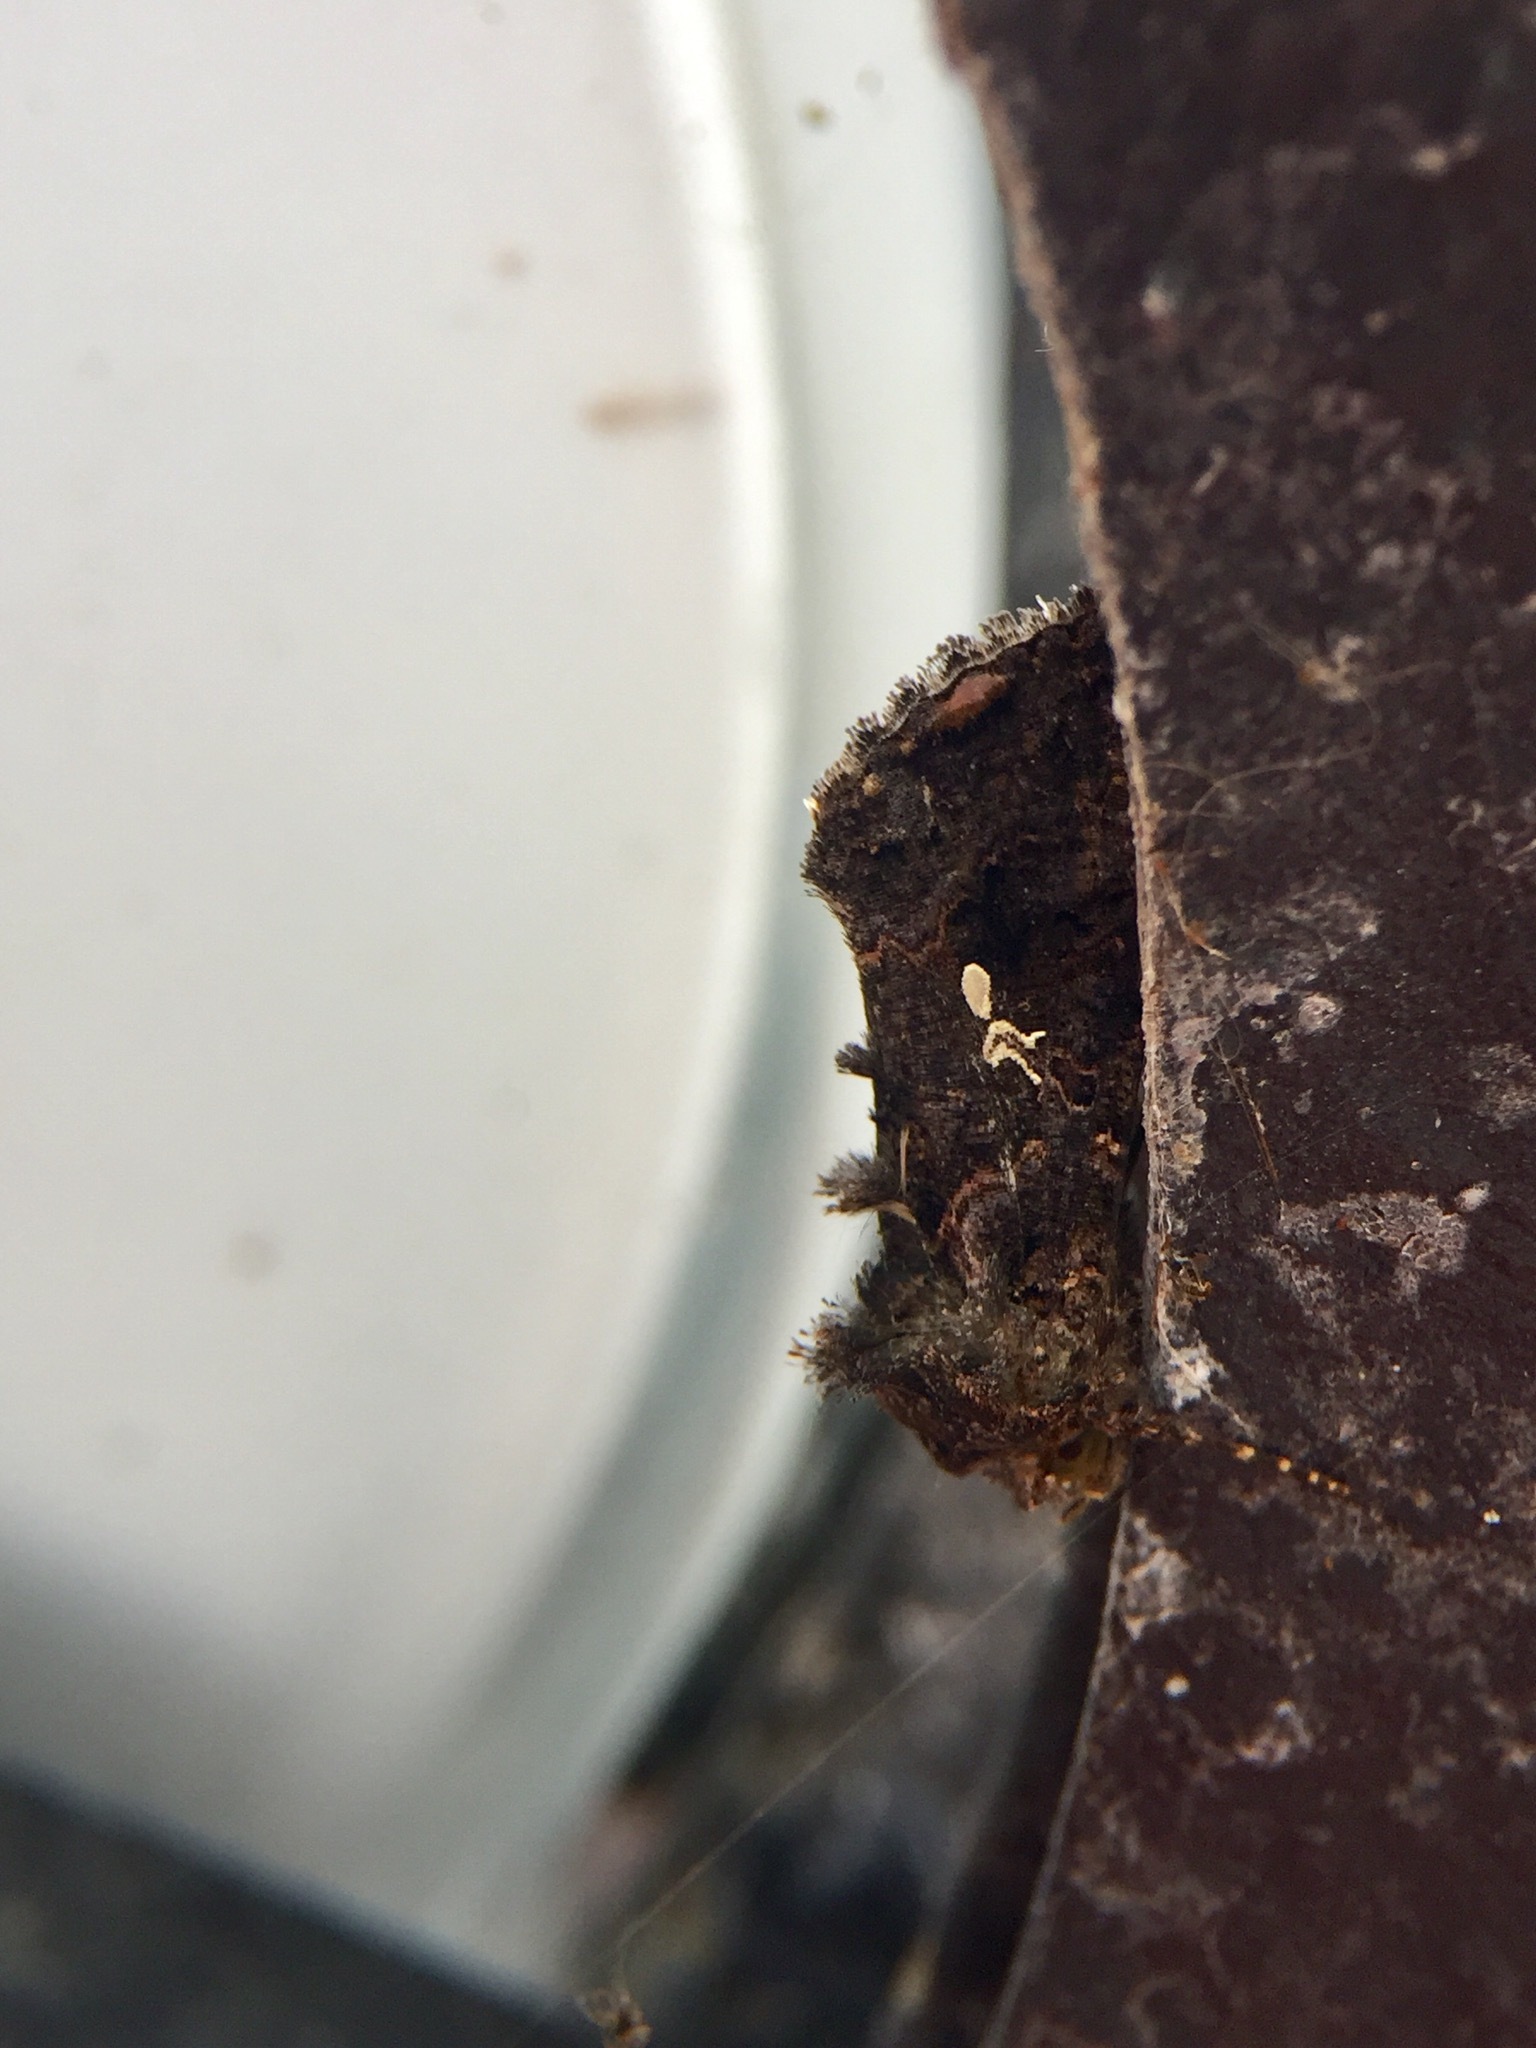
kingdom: Animalia
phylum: Arthropoda
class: Insecta
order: Lepidoptera
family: Noctuidae
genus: Ctenoplusia
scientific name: Ctenoplusia limbirena
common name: Scar bank gem
